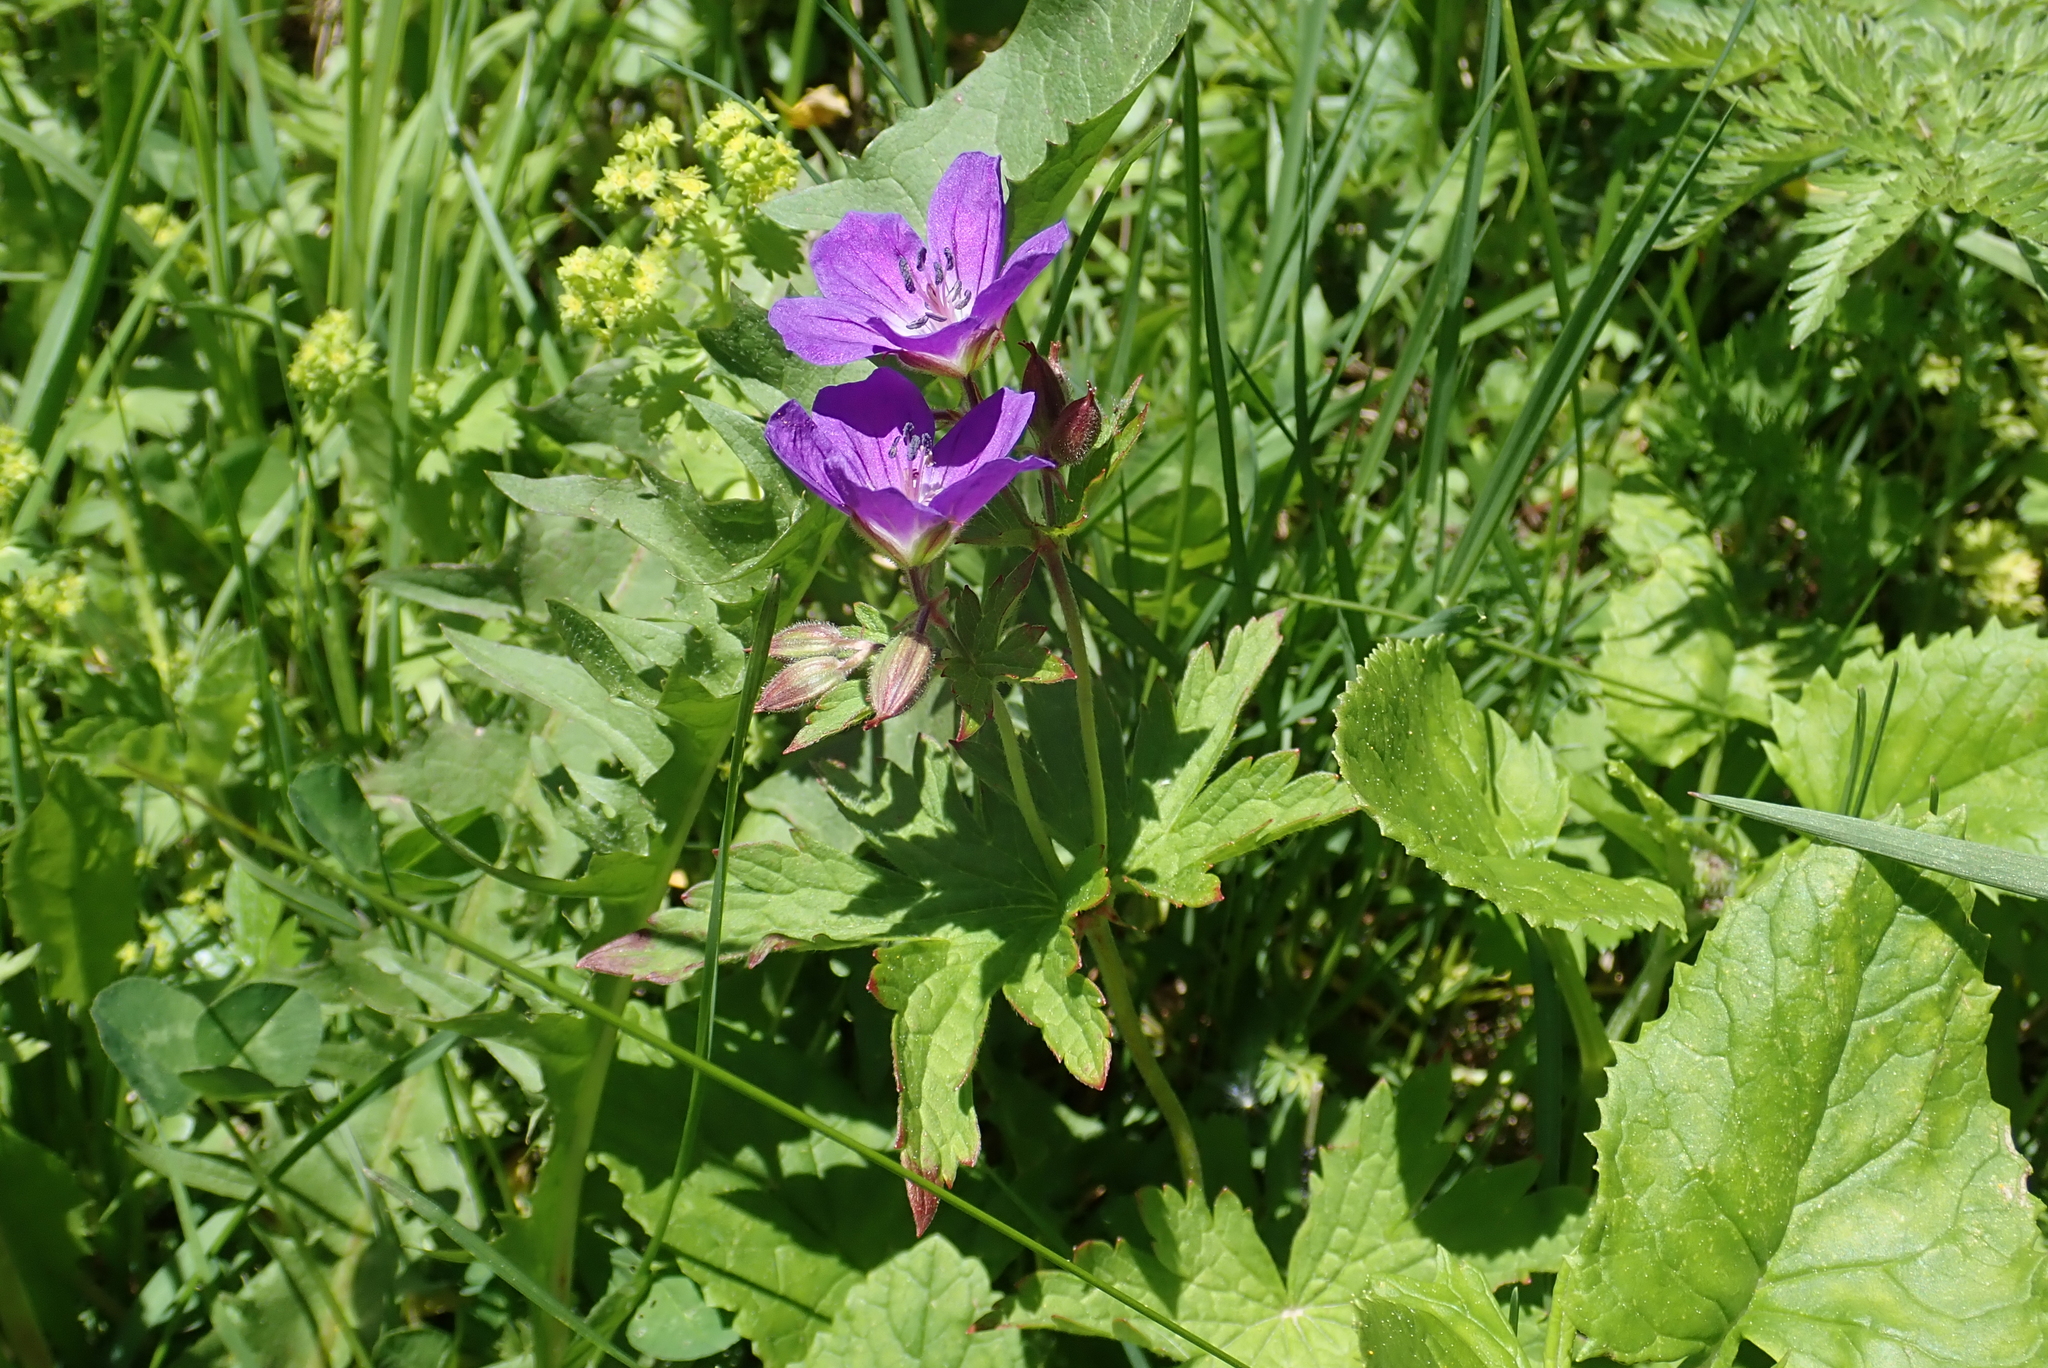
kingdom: Plantae
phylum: Tracheophyta
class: Magnoliopsida
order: Geraniales
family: Geraniaceae
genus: Geranium
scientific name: Geranium sylvaticum
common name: Wood crane's-bill
